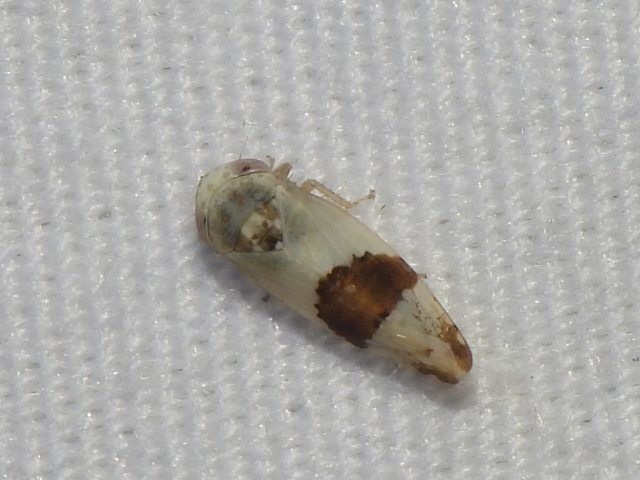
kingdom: Animalia
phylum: Arthropoda
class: Insecta
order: Hemiptera
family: Cicadellidae
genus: Norvellina
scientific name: Norvellina seminuda
